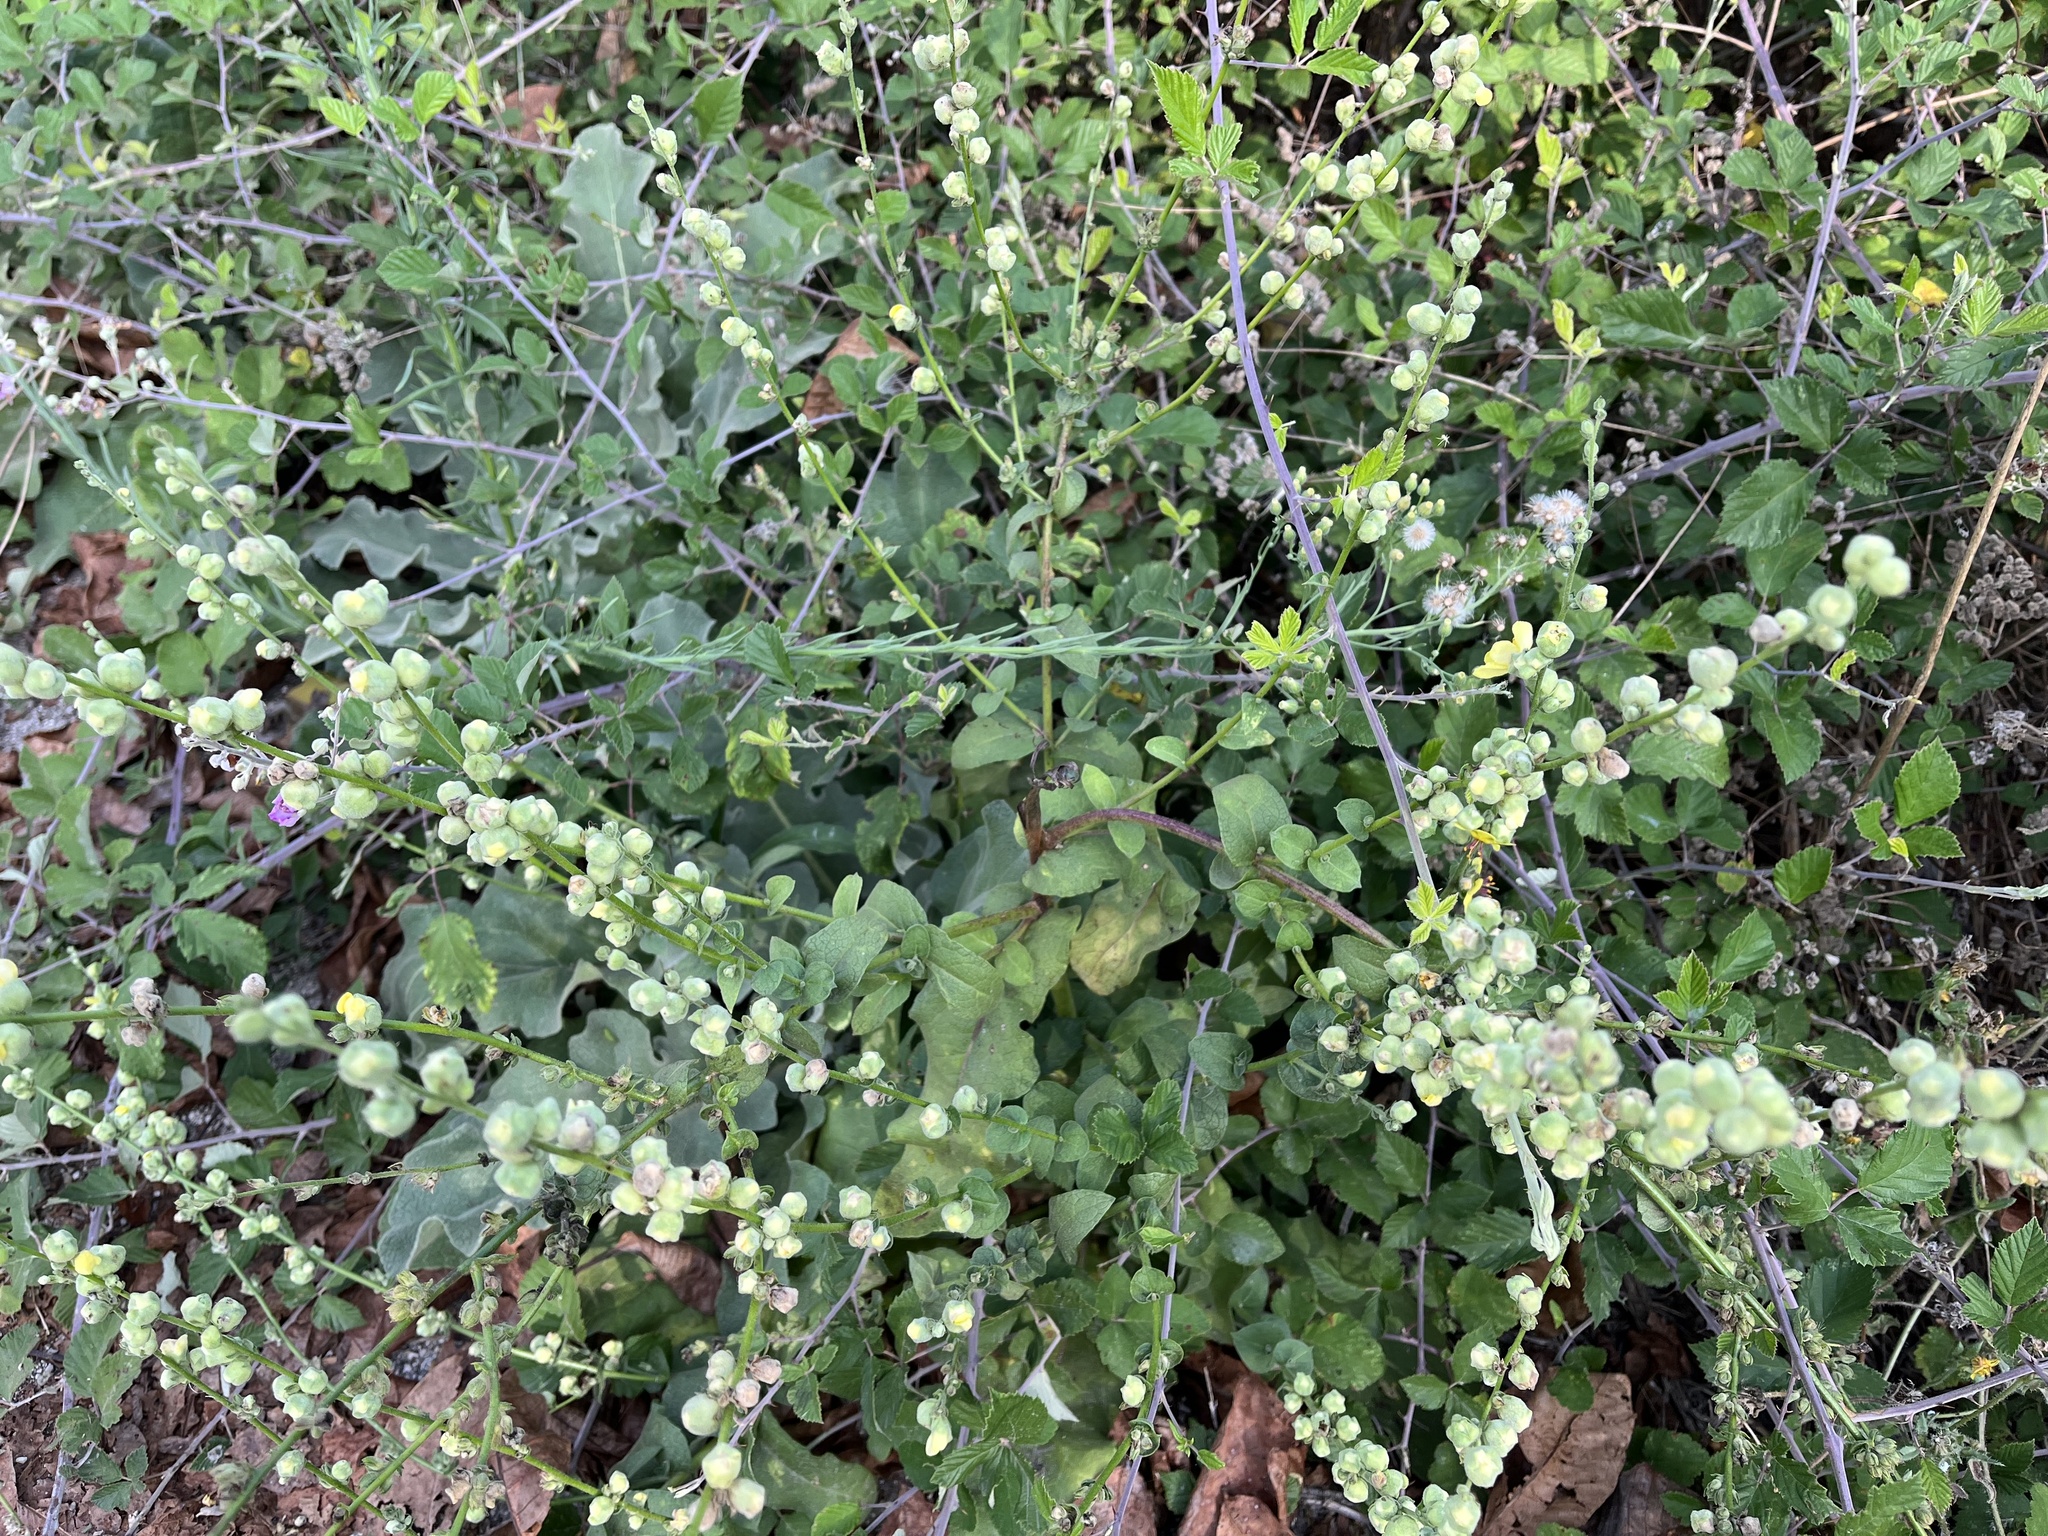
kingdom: Plantae
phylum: Tracheophyta
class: Magnoliopsida
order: Lamiales
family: Scrophulariaceae
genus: Verbascum
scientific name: Verbascum sinuatum
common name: Wavyleaf mullein
